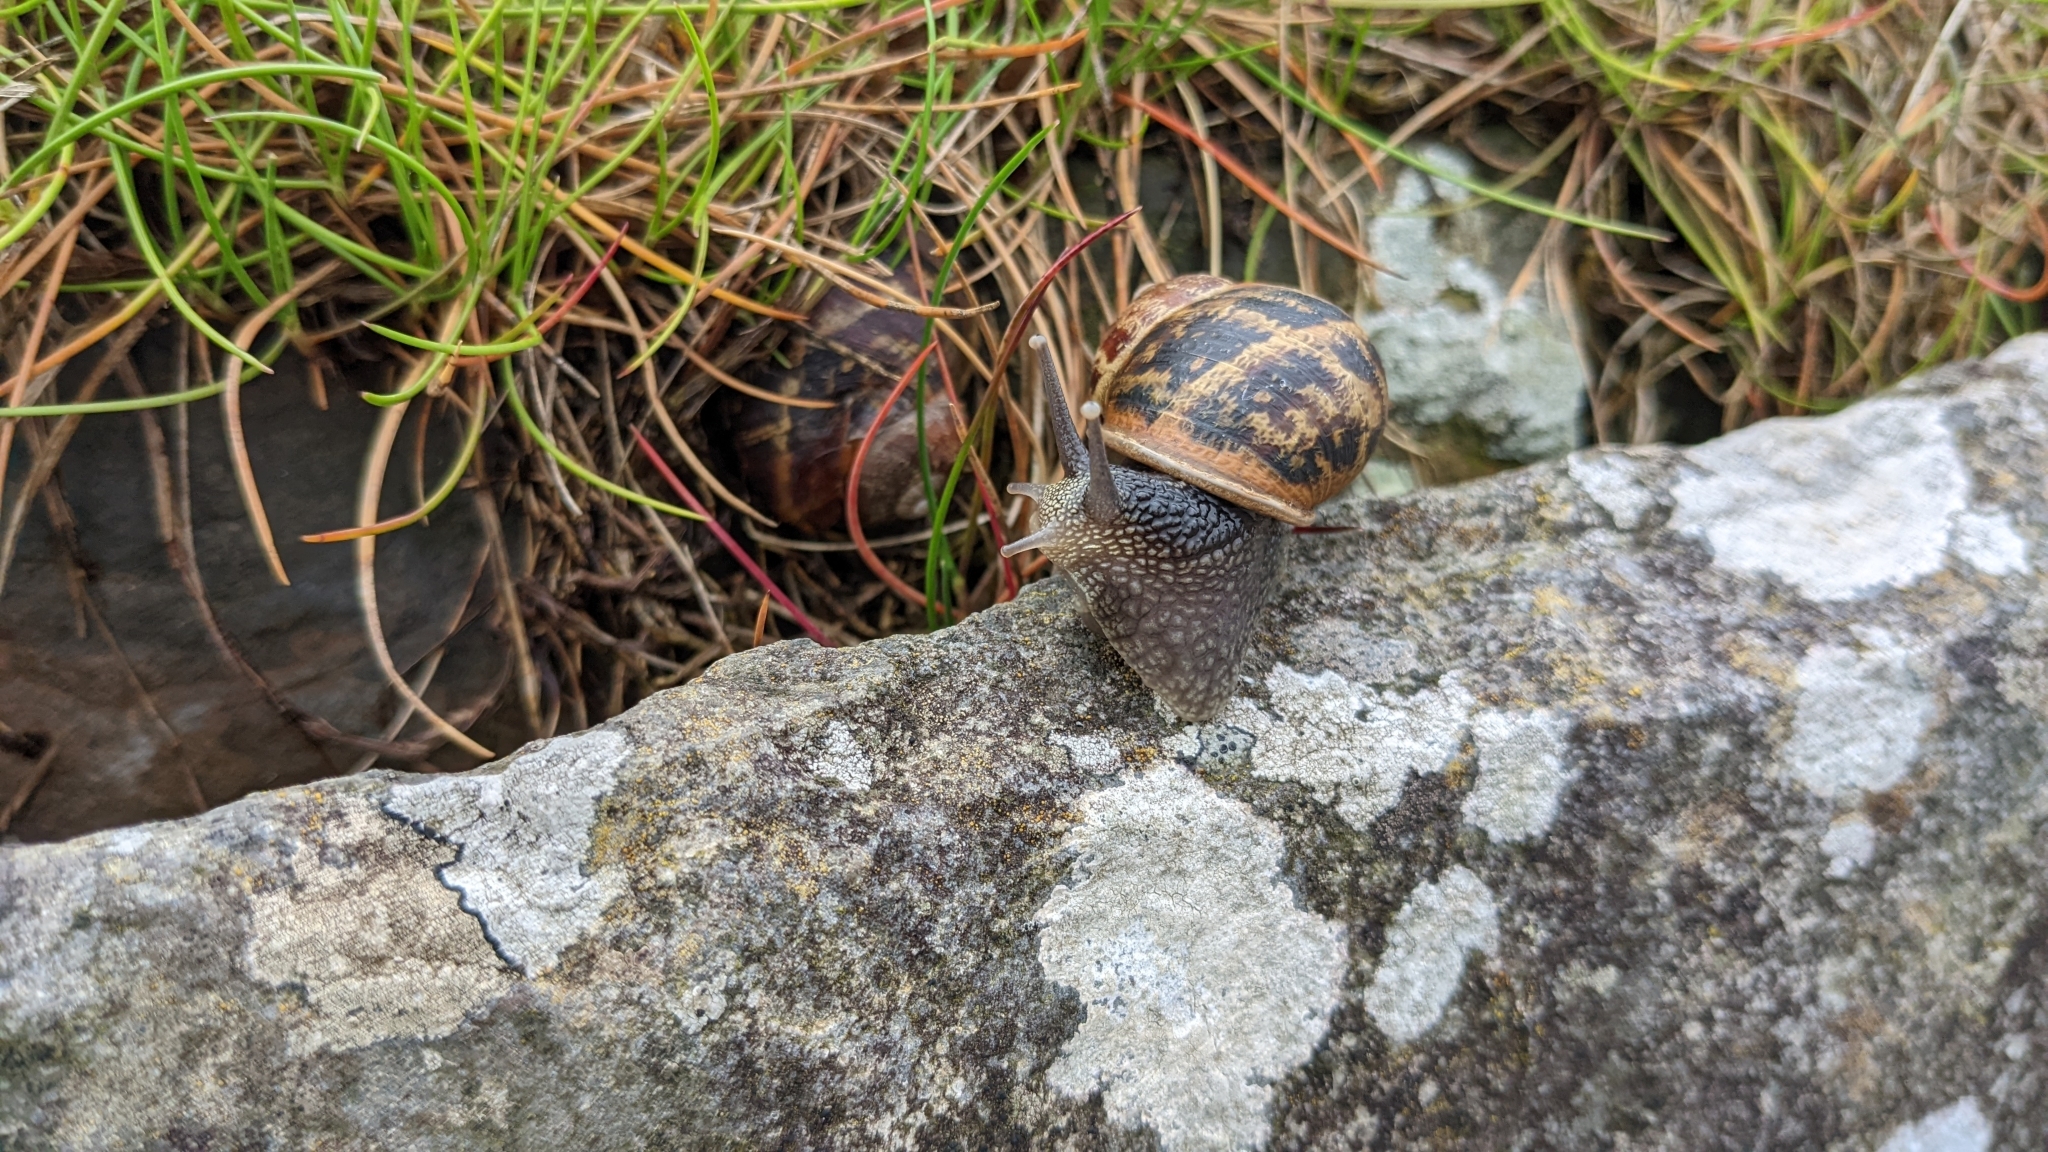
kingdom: Animalia
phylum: Mollusca
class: Gastropoda
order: Stylommatophora
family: Helicidae
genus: Cornu
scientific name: Cornu aspersum
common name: Brown garden snail
